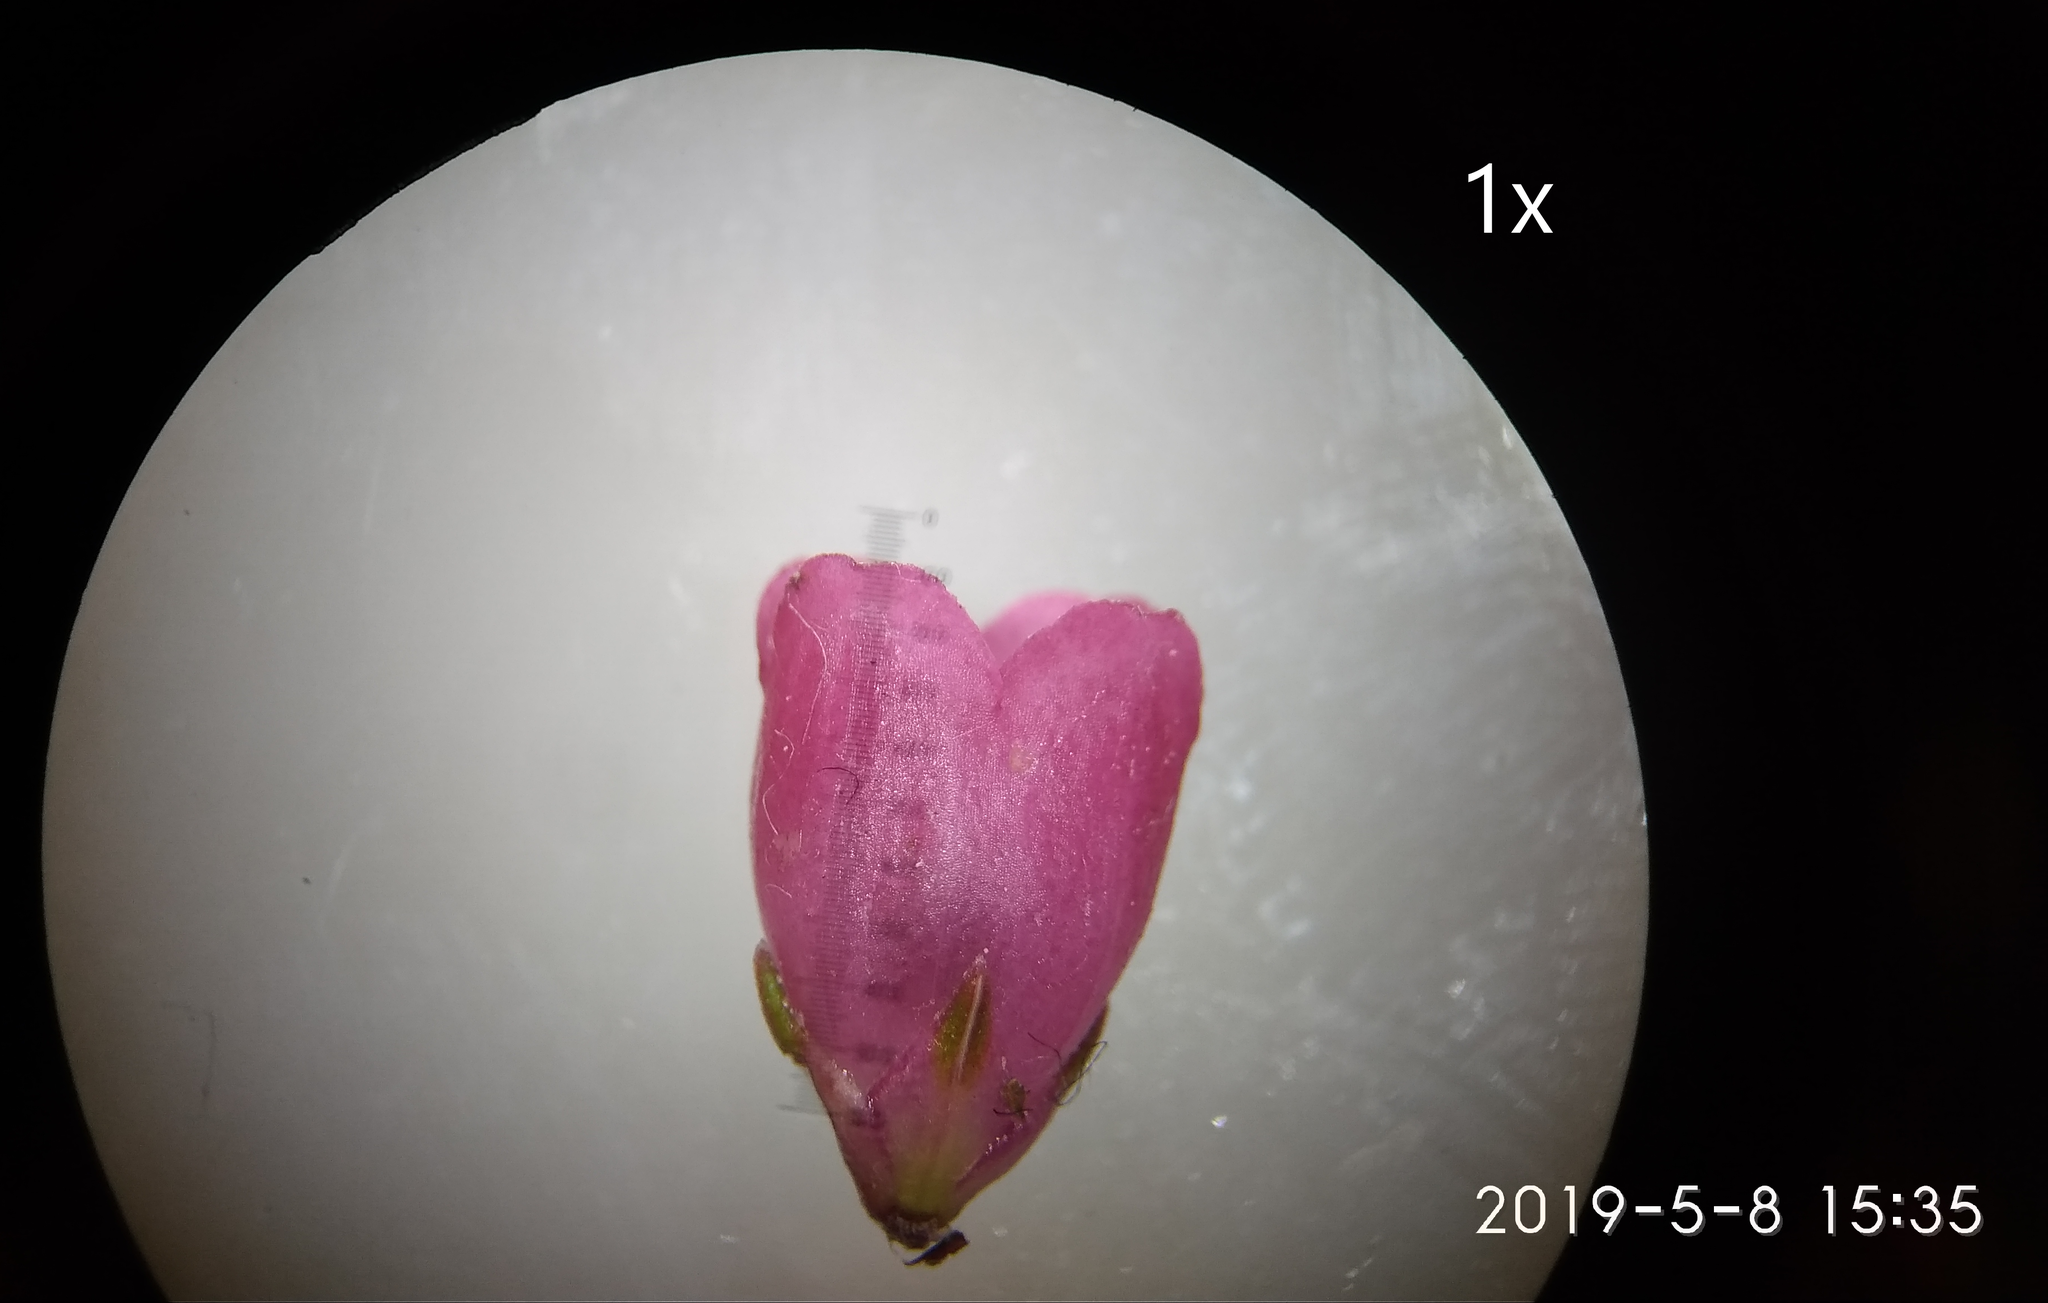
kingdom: Plantae
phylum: Tracheophyta
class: Magnoliopsida
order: Ericales
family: Ericaceae
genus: Erica
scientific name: Erica axilliflora
